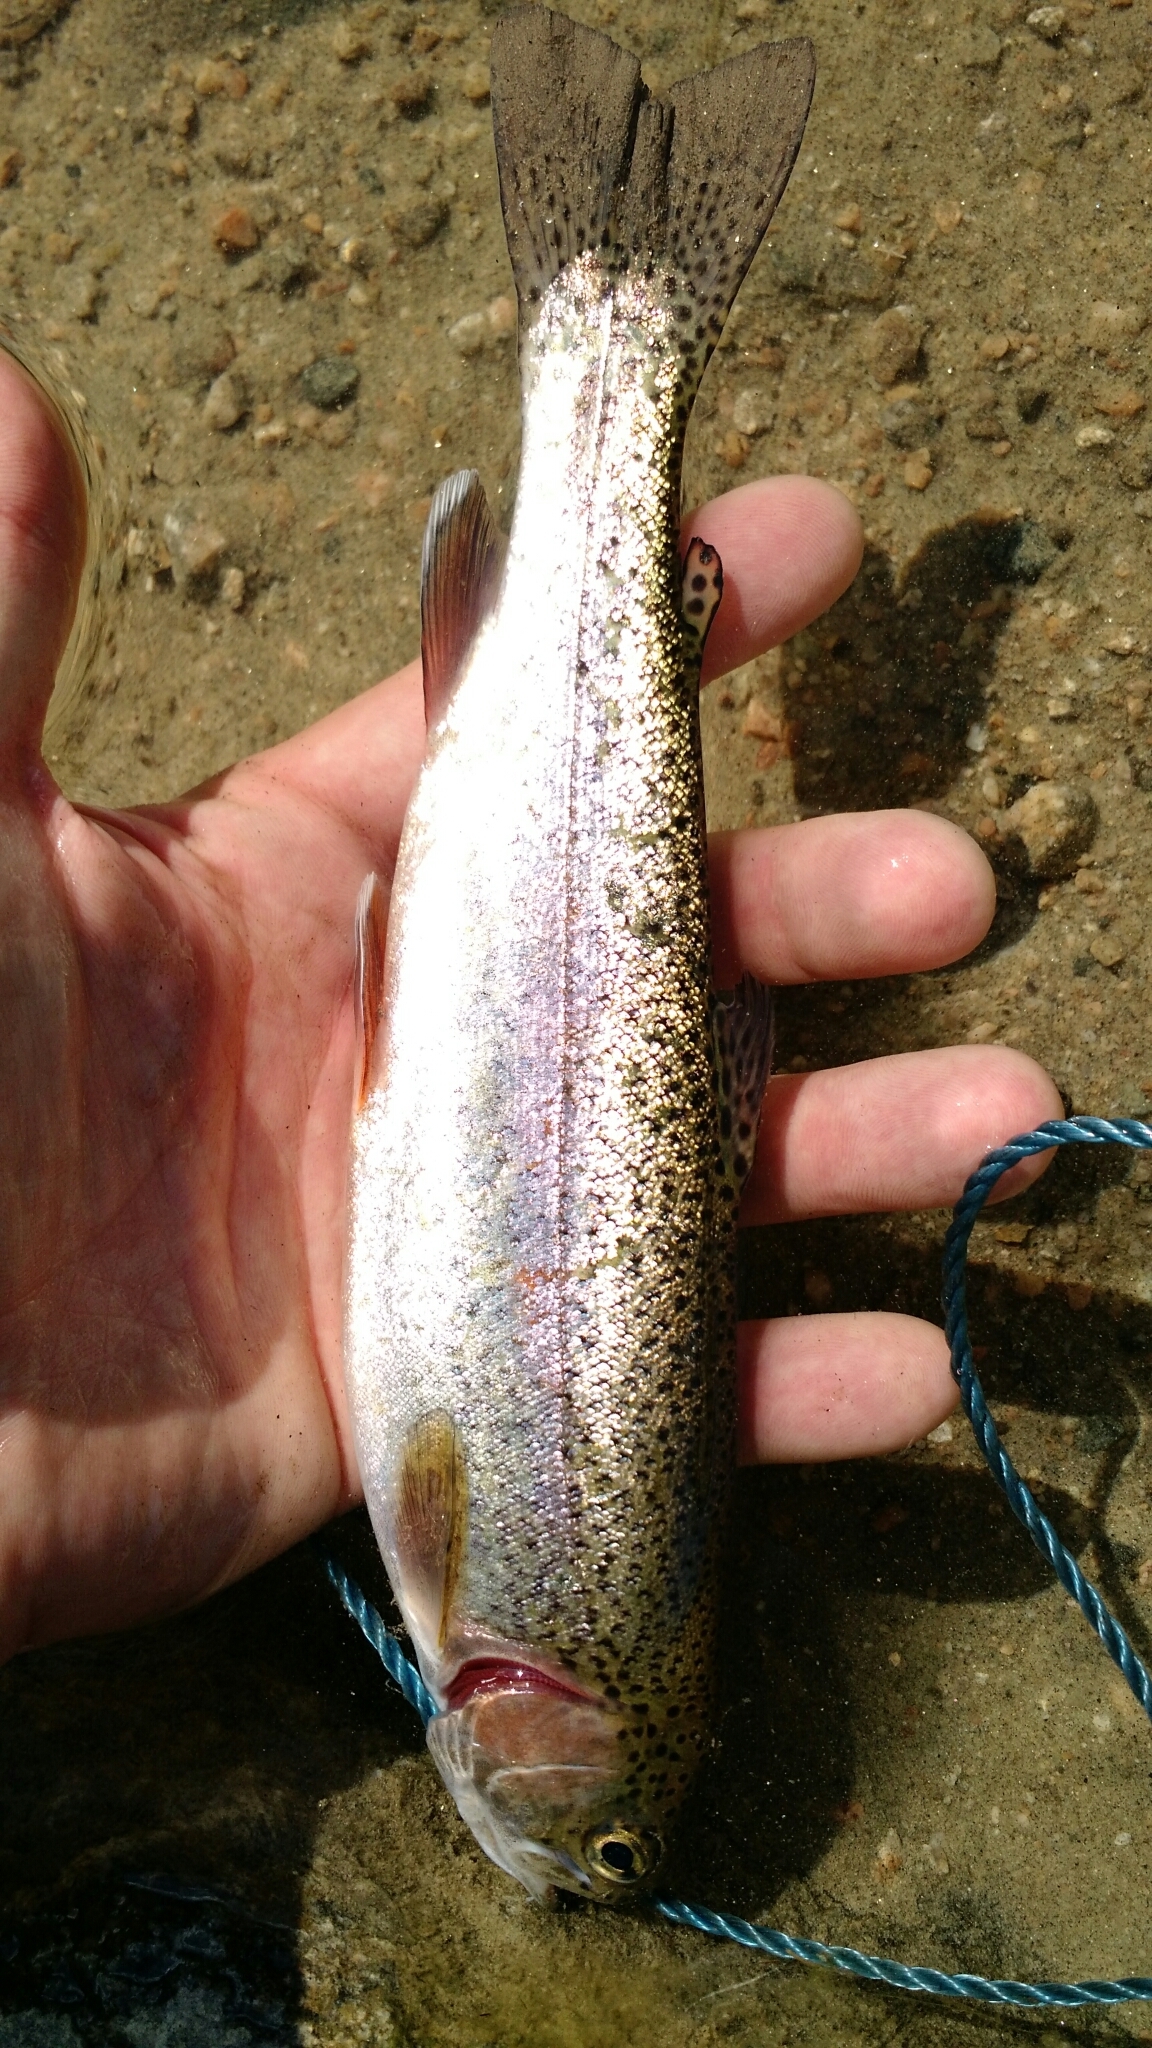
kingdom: Animalia
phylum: Chordata
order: Salmoniformes
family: Salmonidae
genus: Oncorhynchus
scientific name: Oncorhynchus mykiss
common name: Rainbow trout
